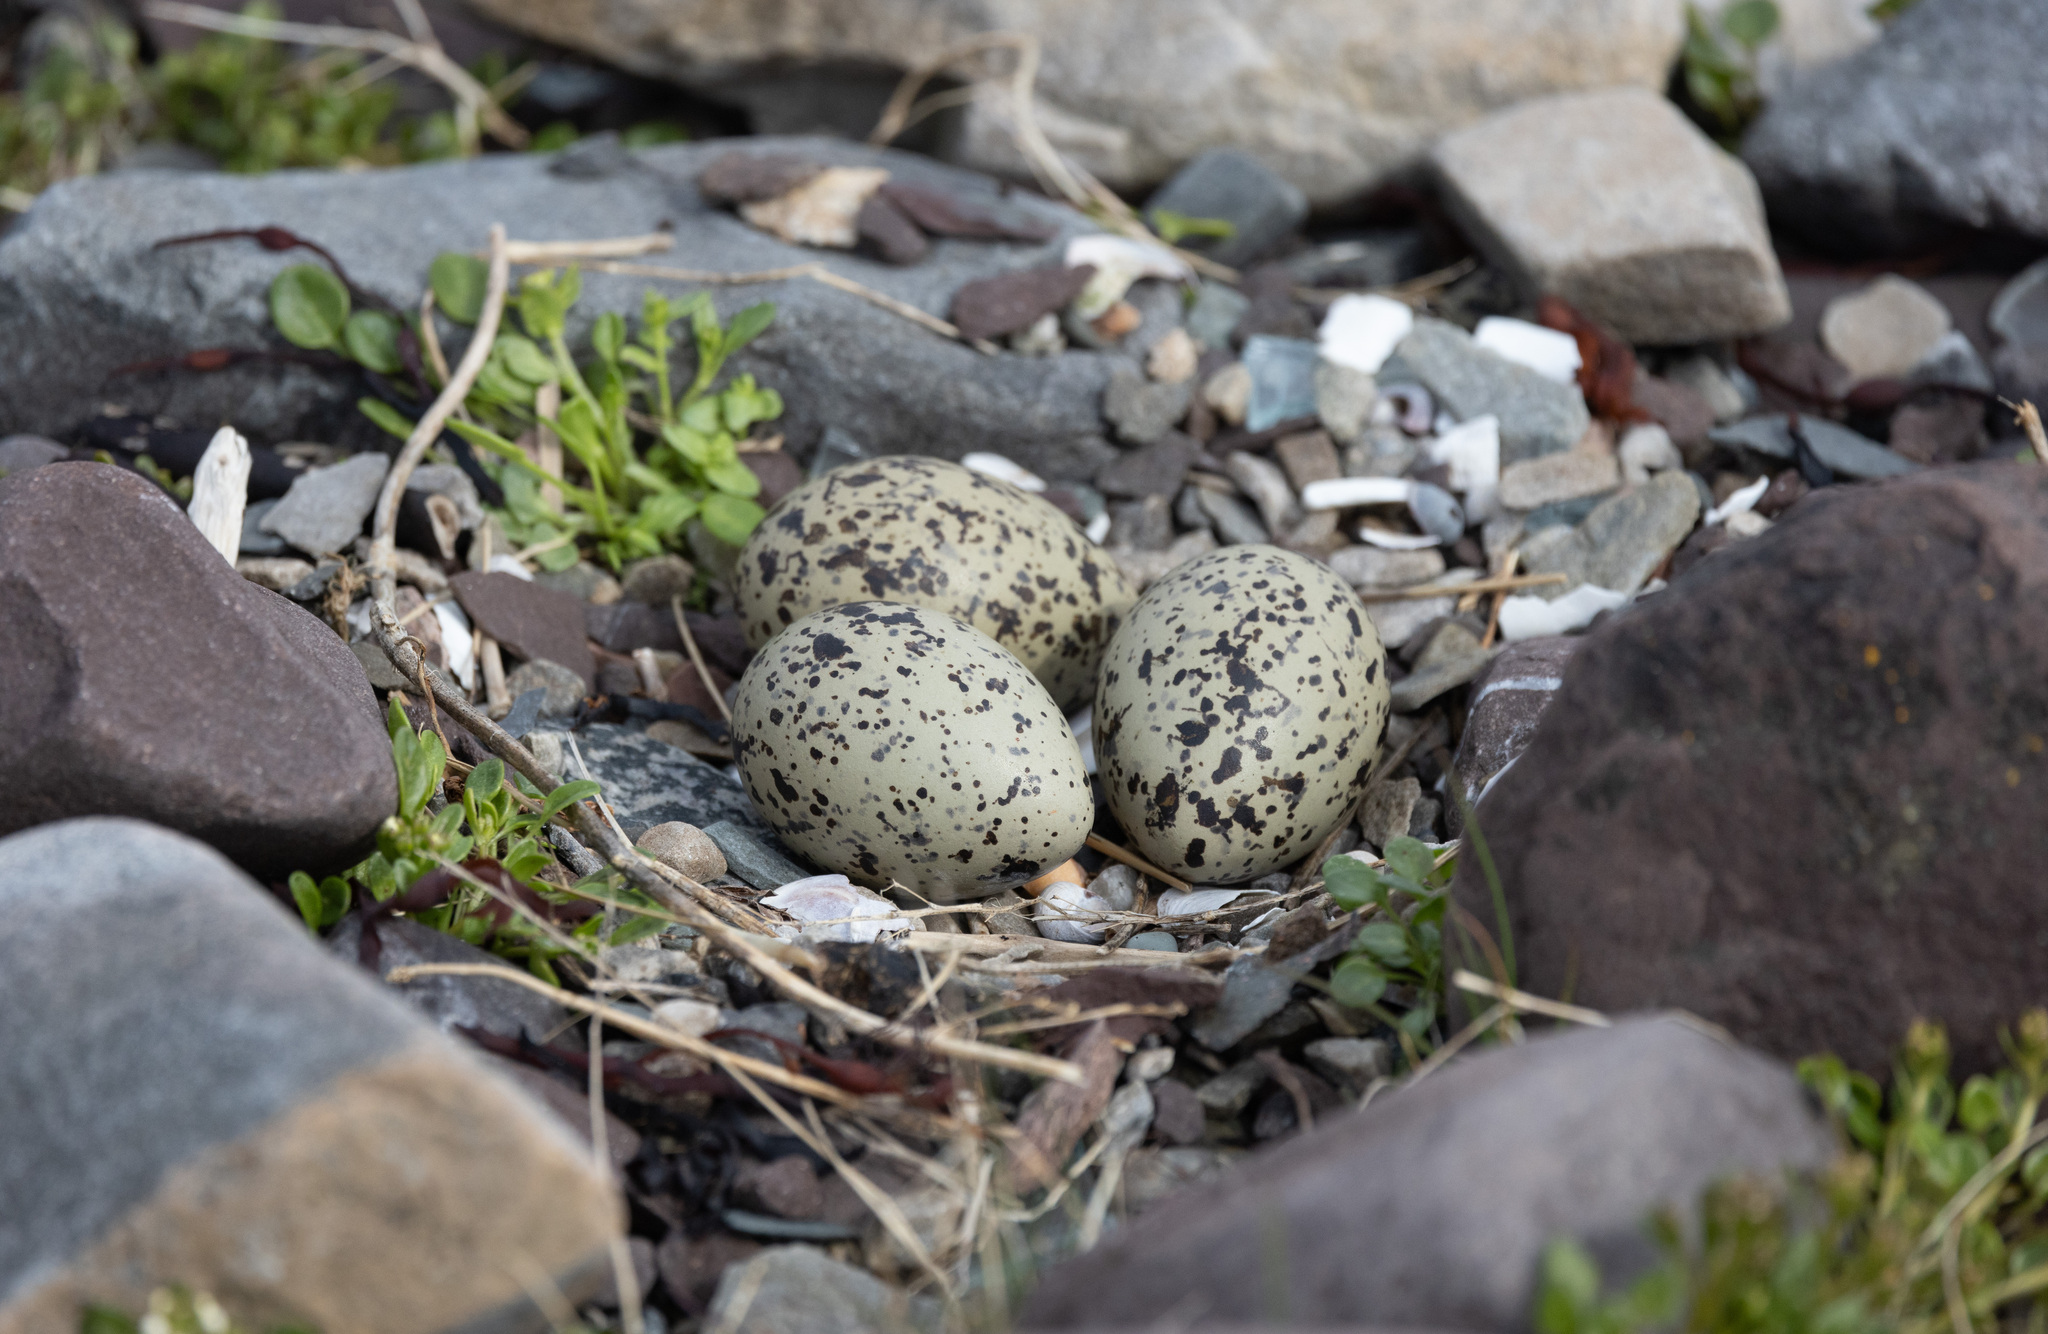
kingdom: Animalia
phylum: Chordata
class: Aves
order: Charadriiformes
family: Haematopodidae
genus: Haematopus
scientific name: Haematopus ostralegus
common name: Eurasian oystercatcher
